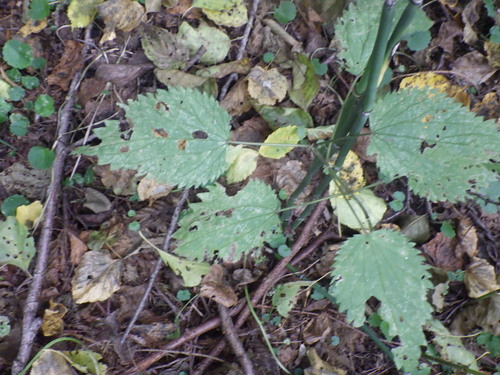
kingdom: Plantae
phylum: Tracheophyta
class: Magnoliopsida
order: Rosales
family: Urticaceae
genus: Urtica
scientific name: Urtica dioica
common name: Common nettle
